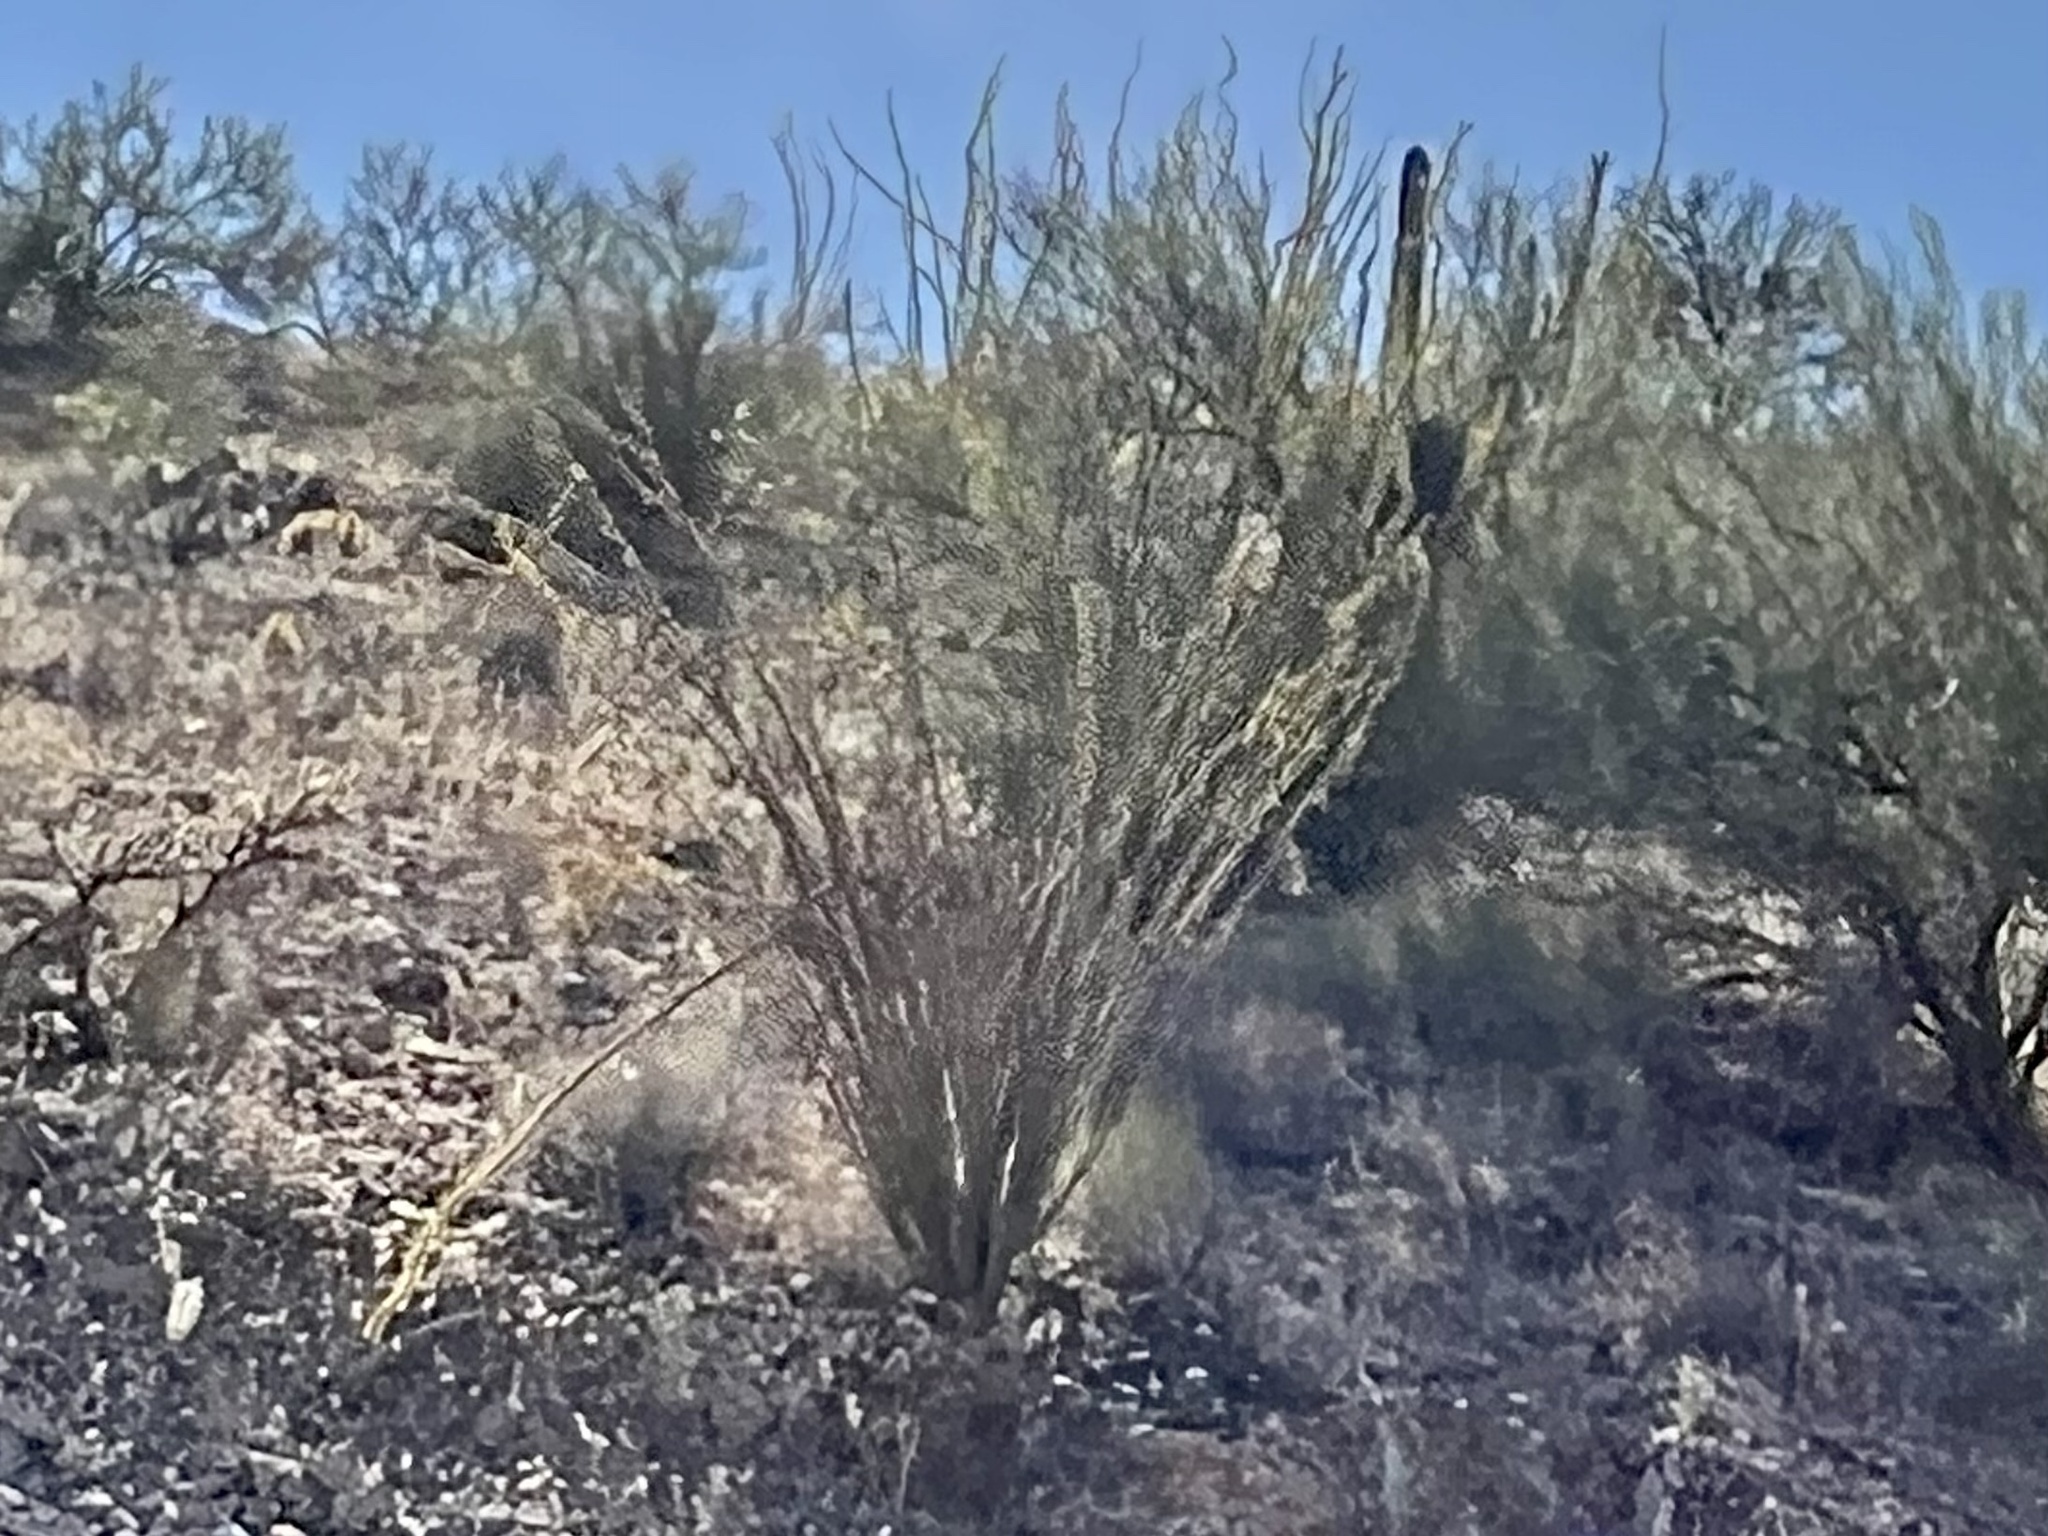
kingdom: Plantae
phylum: Tracheophyta
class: Magnoliopsida
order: Ericales
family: Fouquieriaceae
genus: Fouquieria
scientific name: Fouquieria splendens
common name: Vine-cactus
